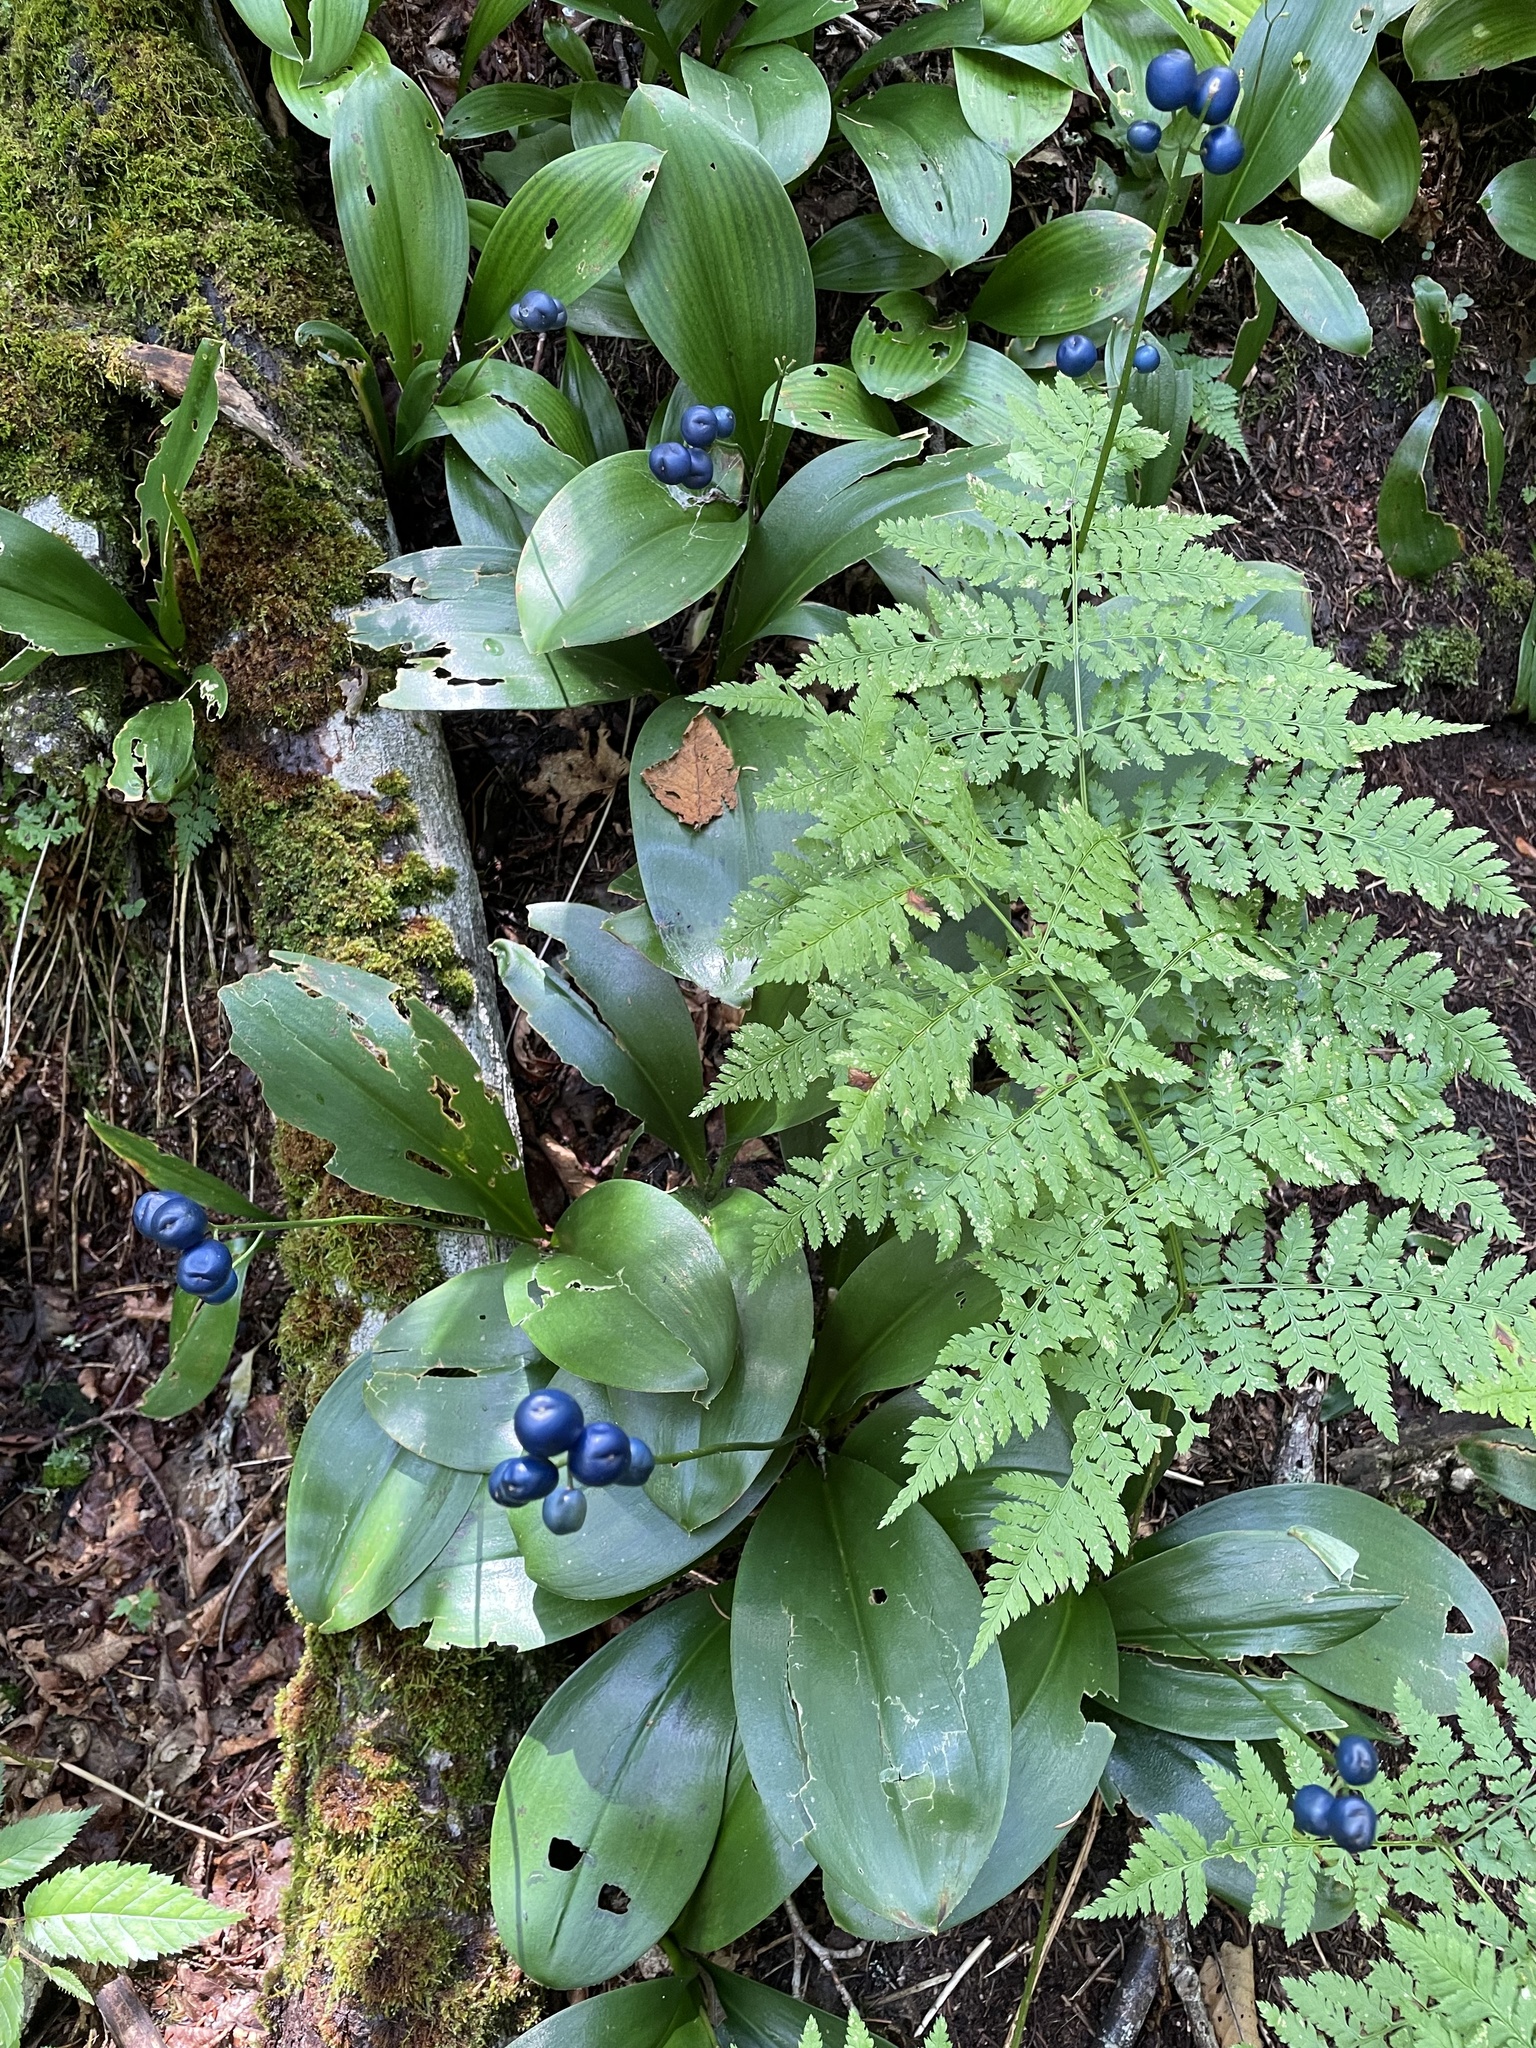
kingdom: Plantae
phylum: Tracheophyta
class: Liliopsida
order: Liliales
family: Liliaceae
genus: Clintonia
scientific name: Clintonia borealis
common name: Yellow clintonia
